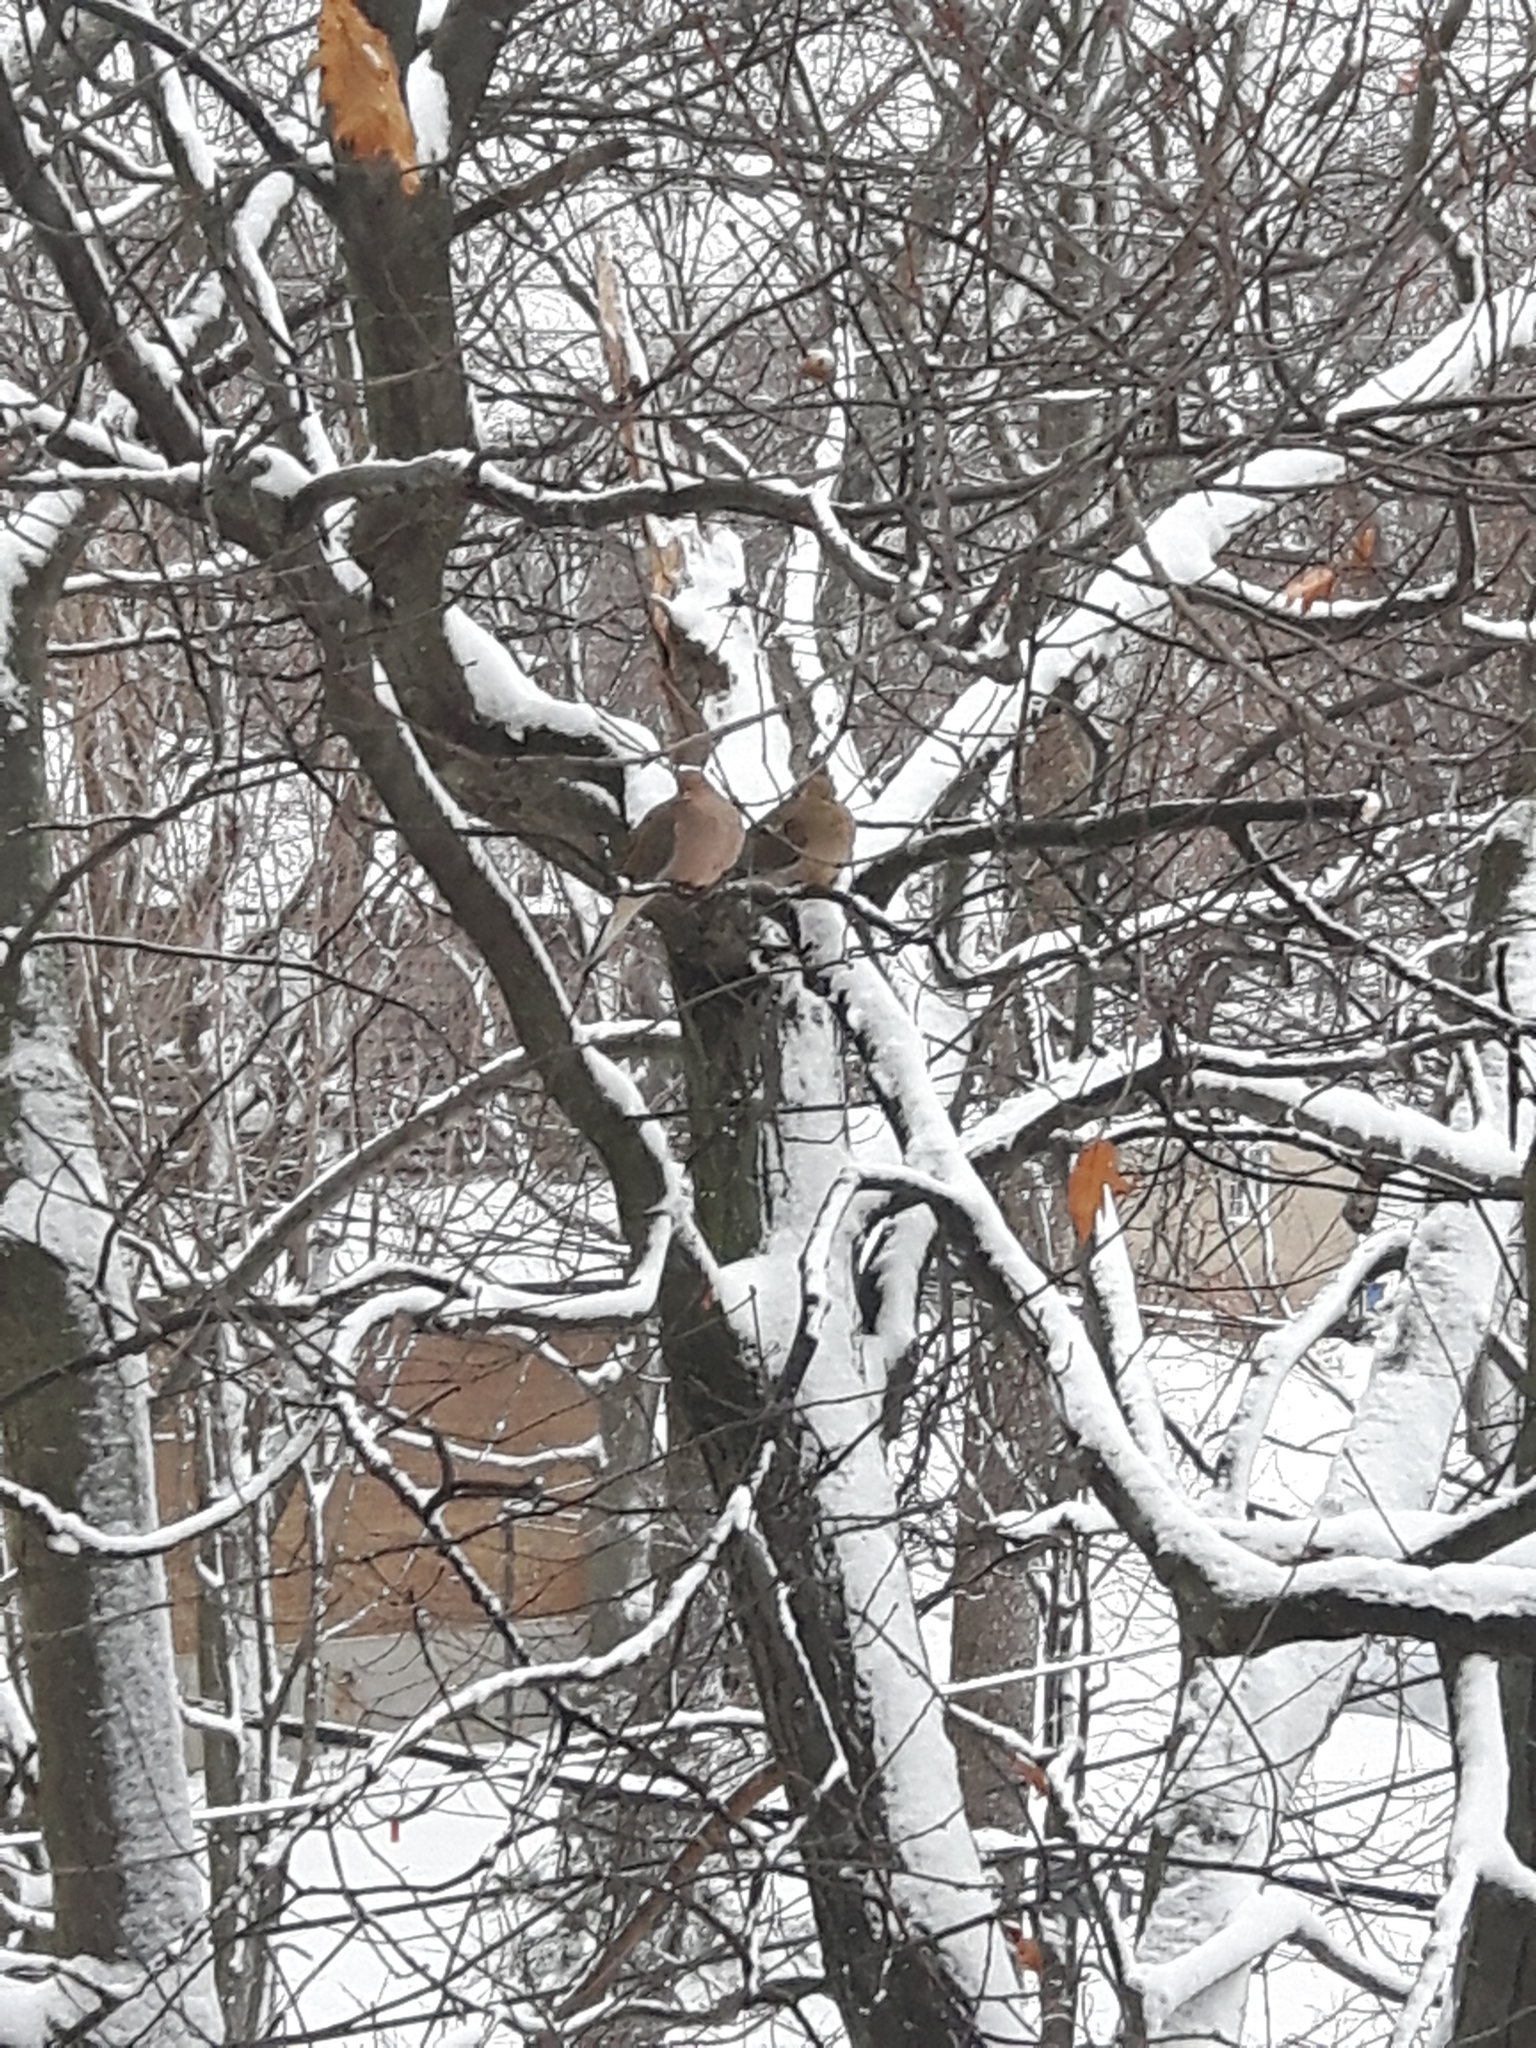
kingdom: Animalia
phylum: Chordata
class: Aves
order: Columbiformes
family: Columbidae
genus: Zenaida
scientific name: Zenaida macroura
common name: Mourning dove
